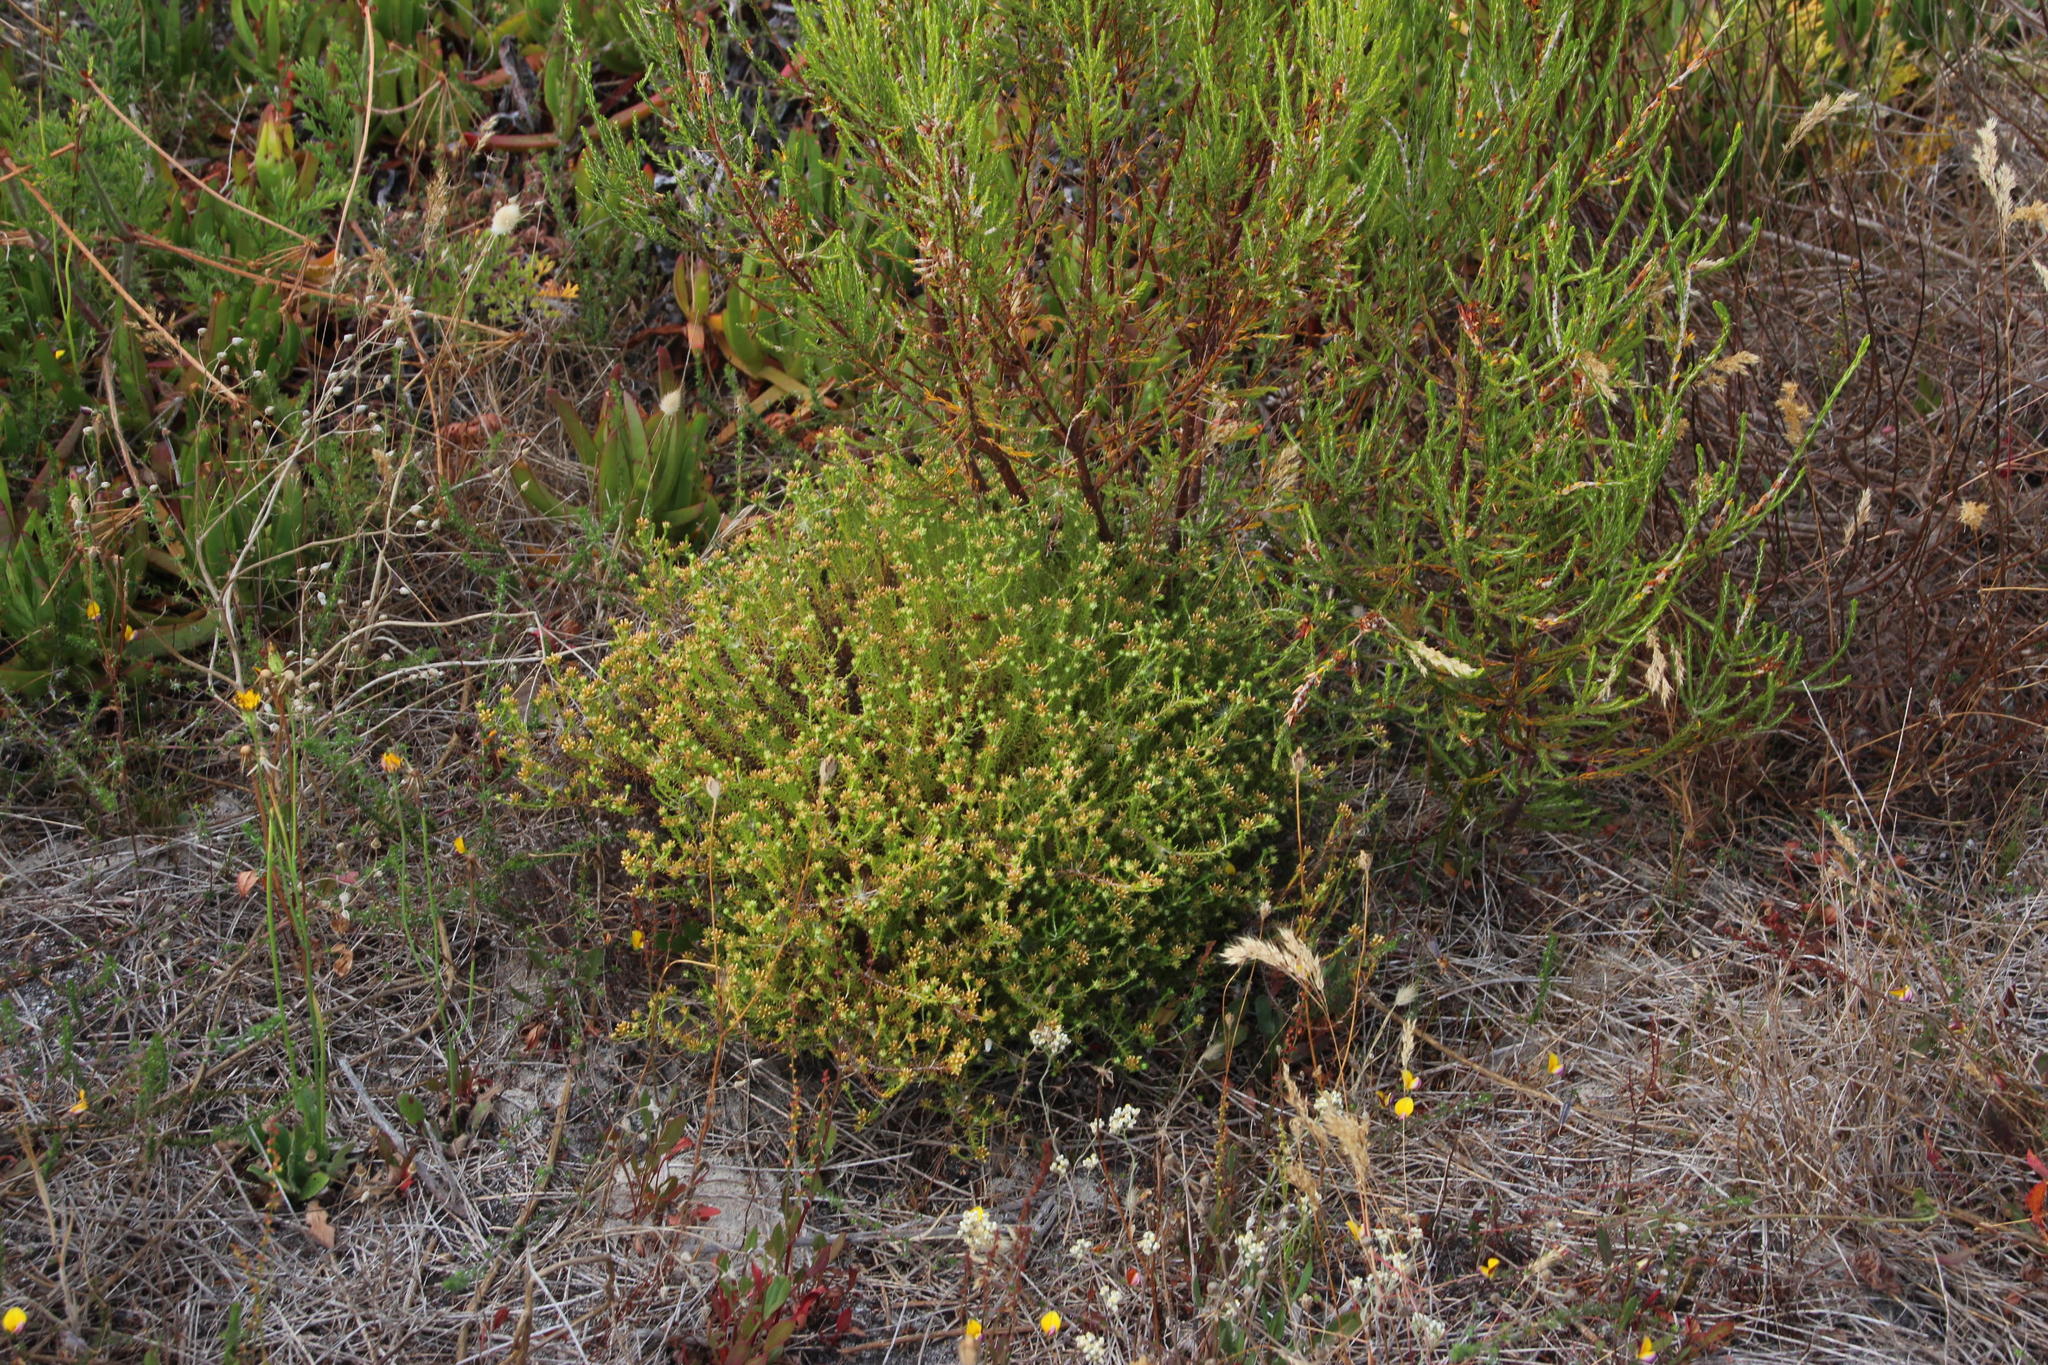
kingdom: Plantae
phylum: Tracheophyta
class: Magnoliopsida
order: Santalales
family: Thesiaceae
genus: Thesium
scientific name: Thesium scabrum
